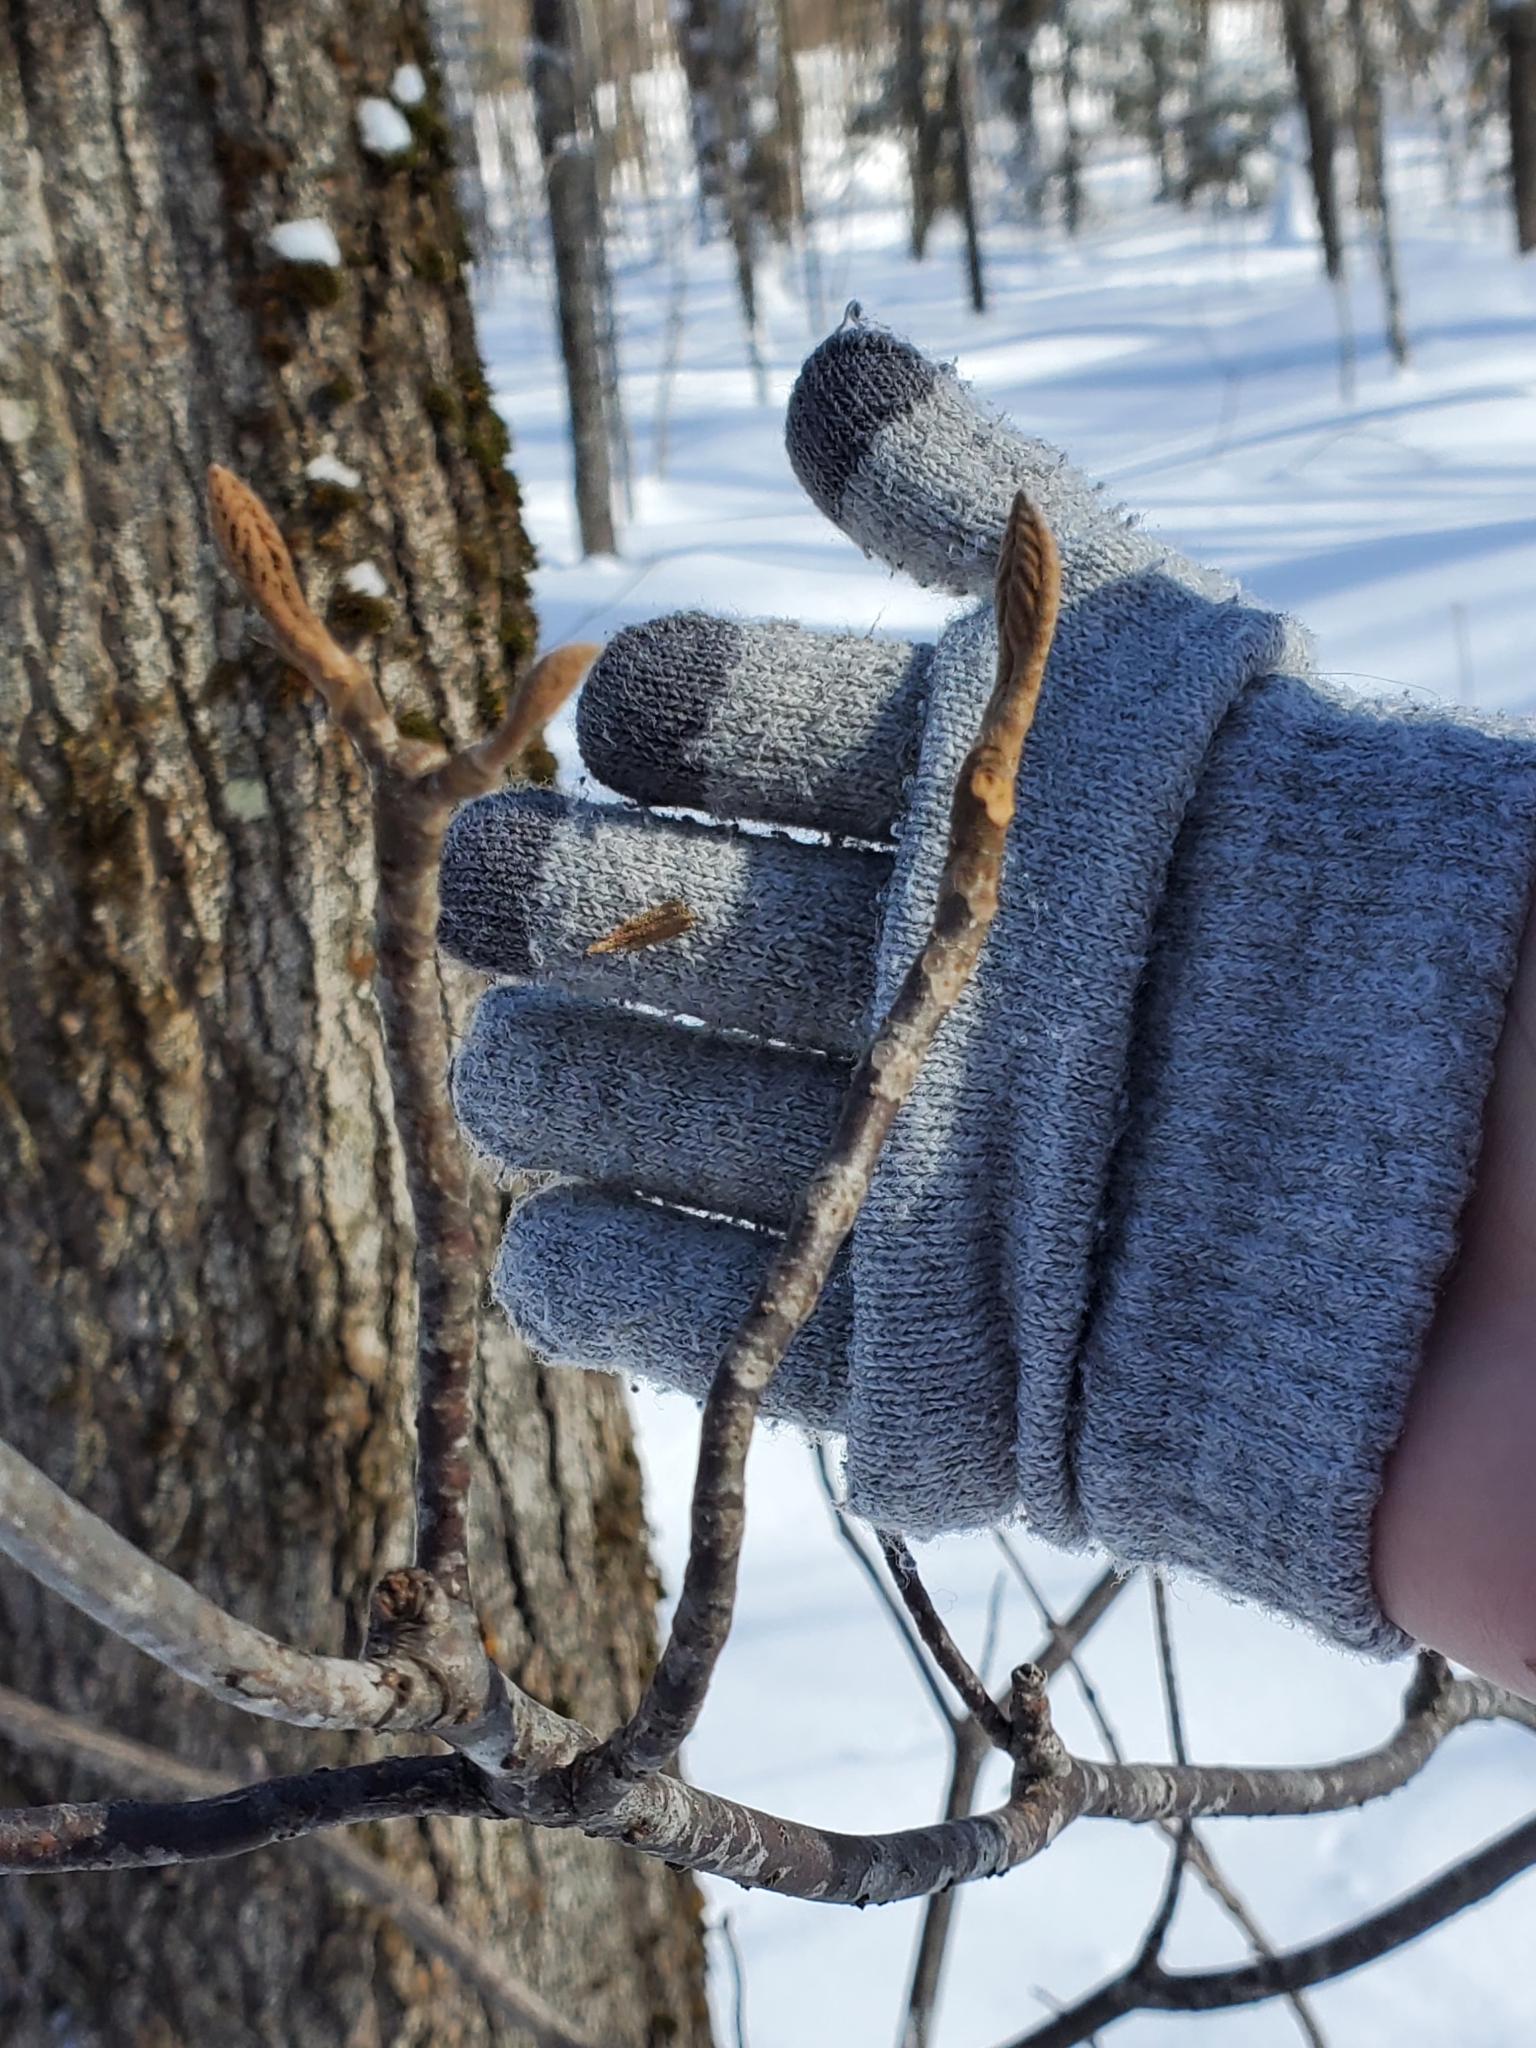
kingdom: Plantae
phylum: Tracheophyta
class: Magnoliopsida
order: Dipsacales
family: Viburnaceae
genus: Viburnum
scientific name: Viburnum lantanoides
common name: Hobblebush
